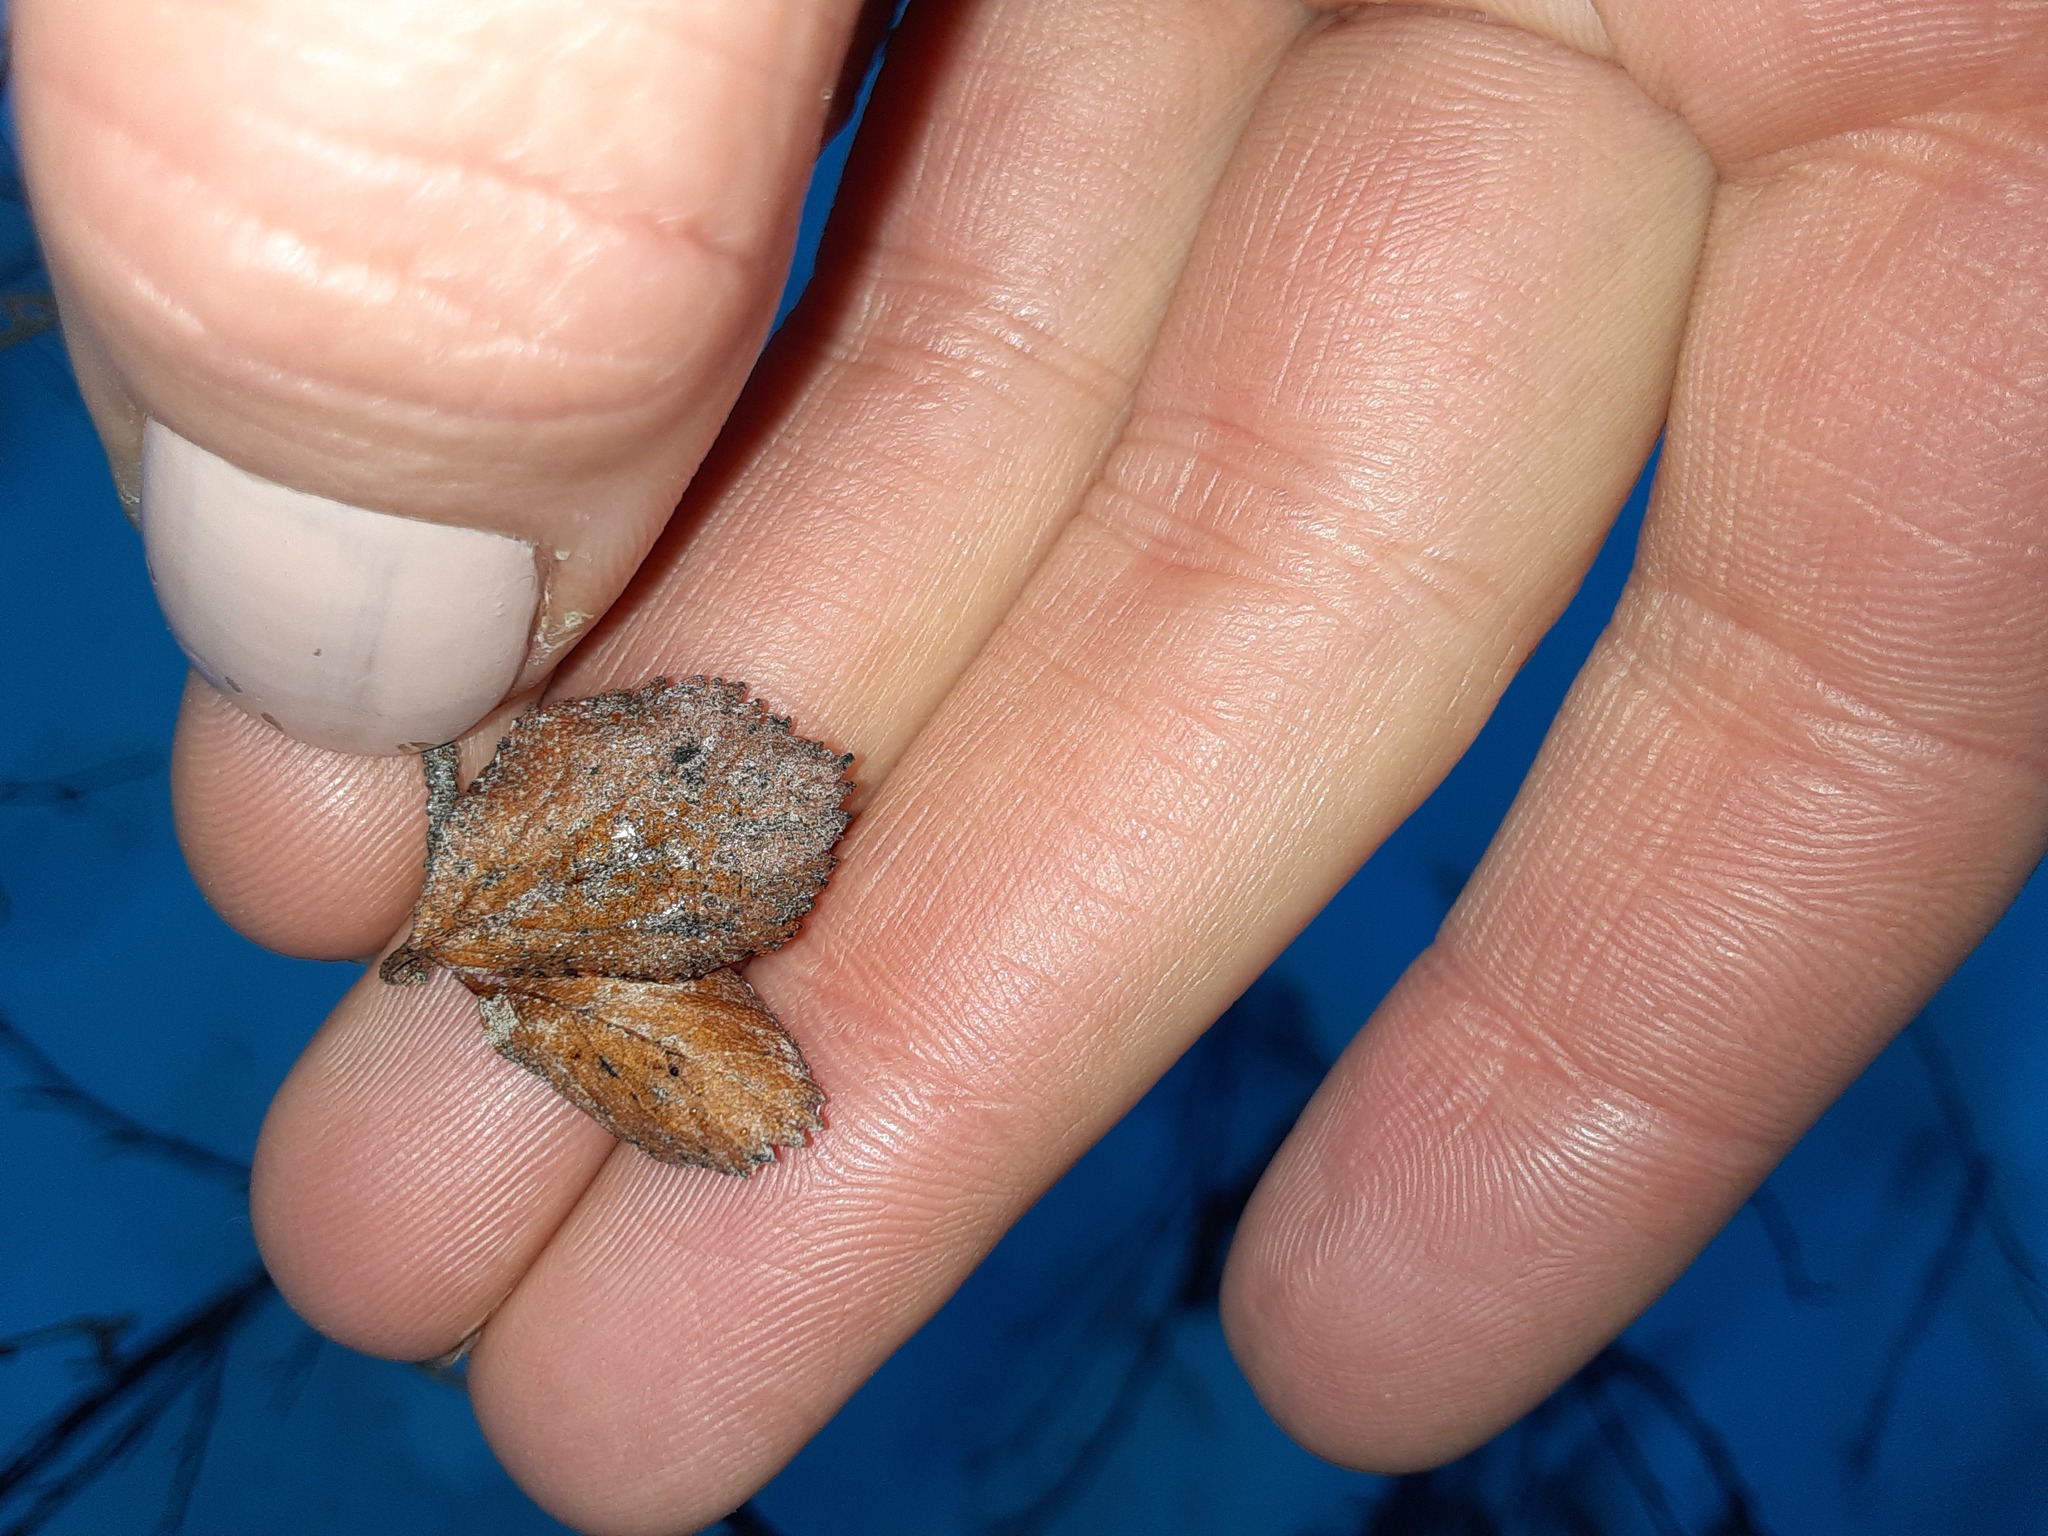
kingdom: Plantae
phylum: Tracheophyta
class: Magnoliopsida
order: Fagales
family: Betulaceae
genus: Betula
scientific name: Betula glandulosa
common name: Dwarf birch
